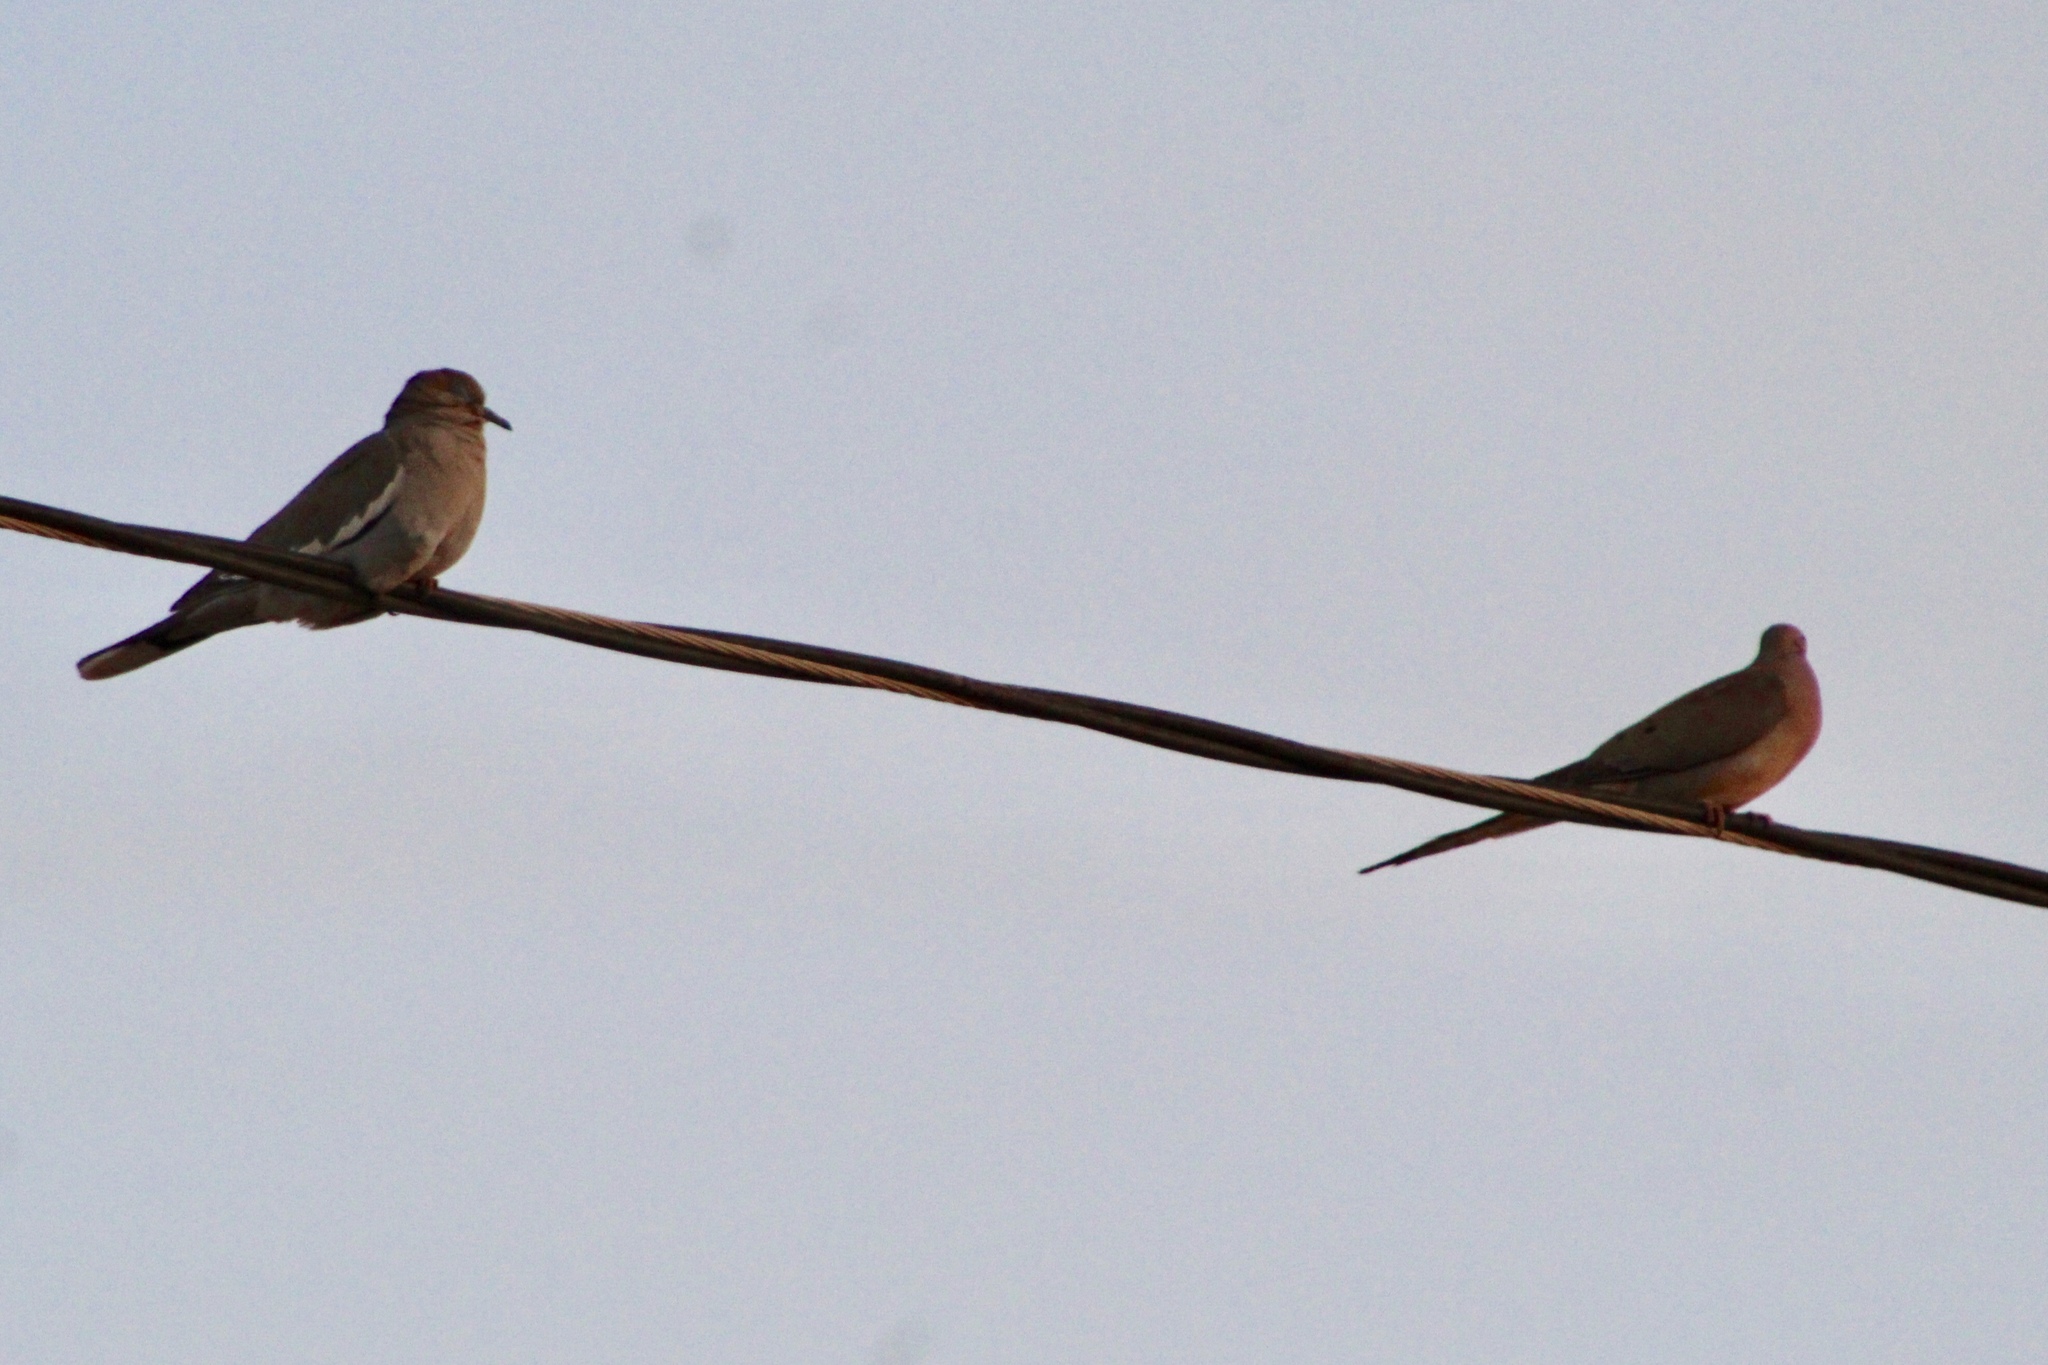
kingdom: Animalia
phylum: Chordata
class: Aves
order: Columbiformes
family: Columbidae
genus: Zenaida
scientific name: Zenaida asiatica
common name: White-winged dove
